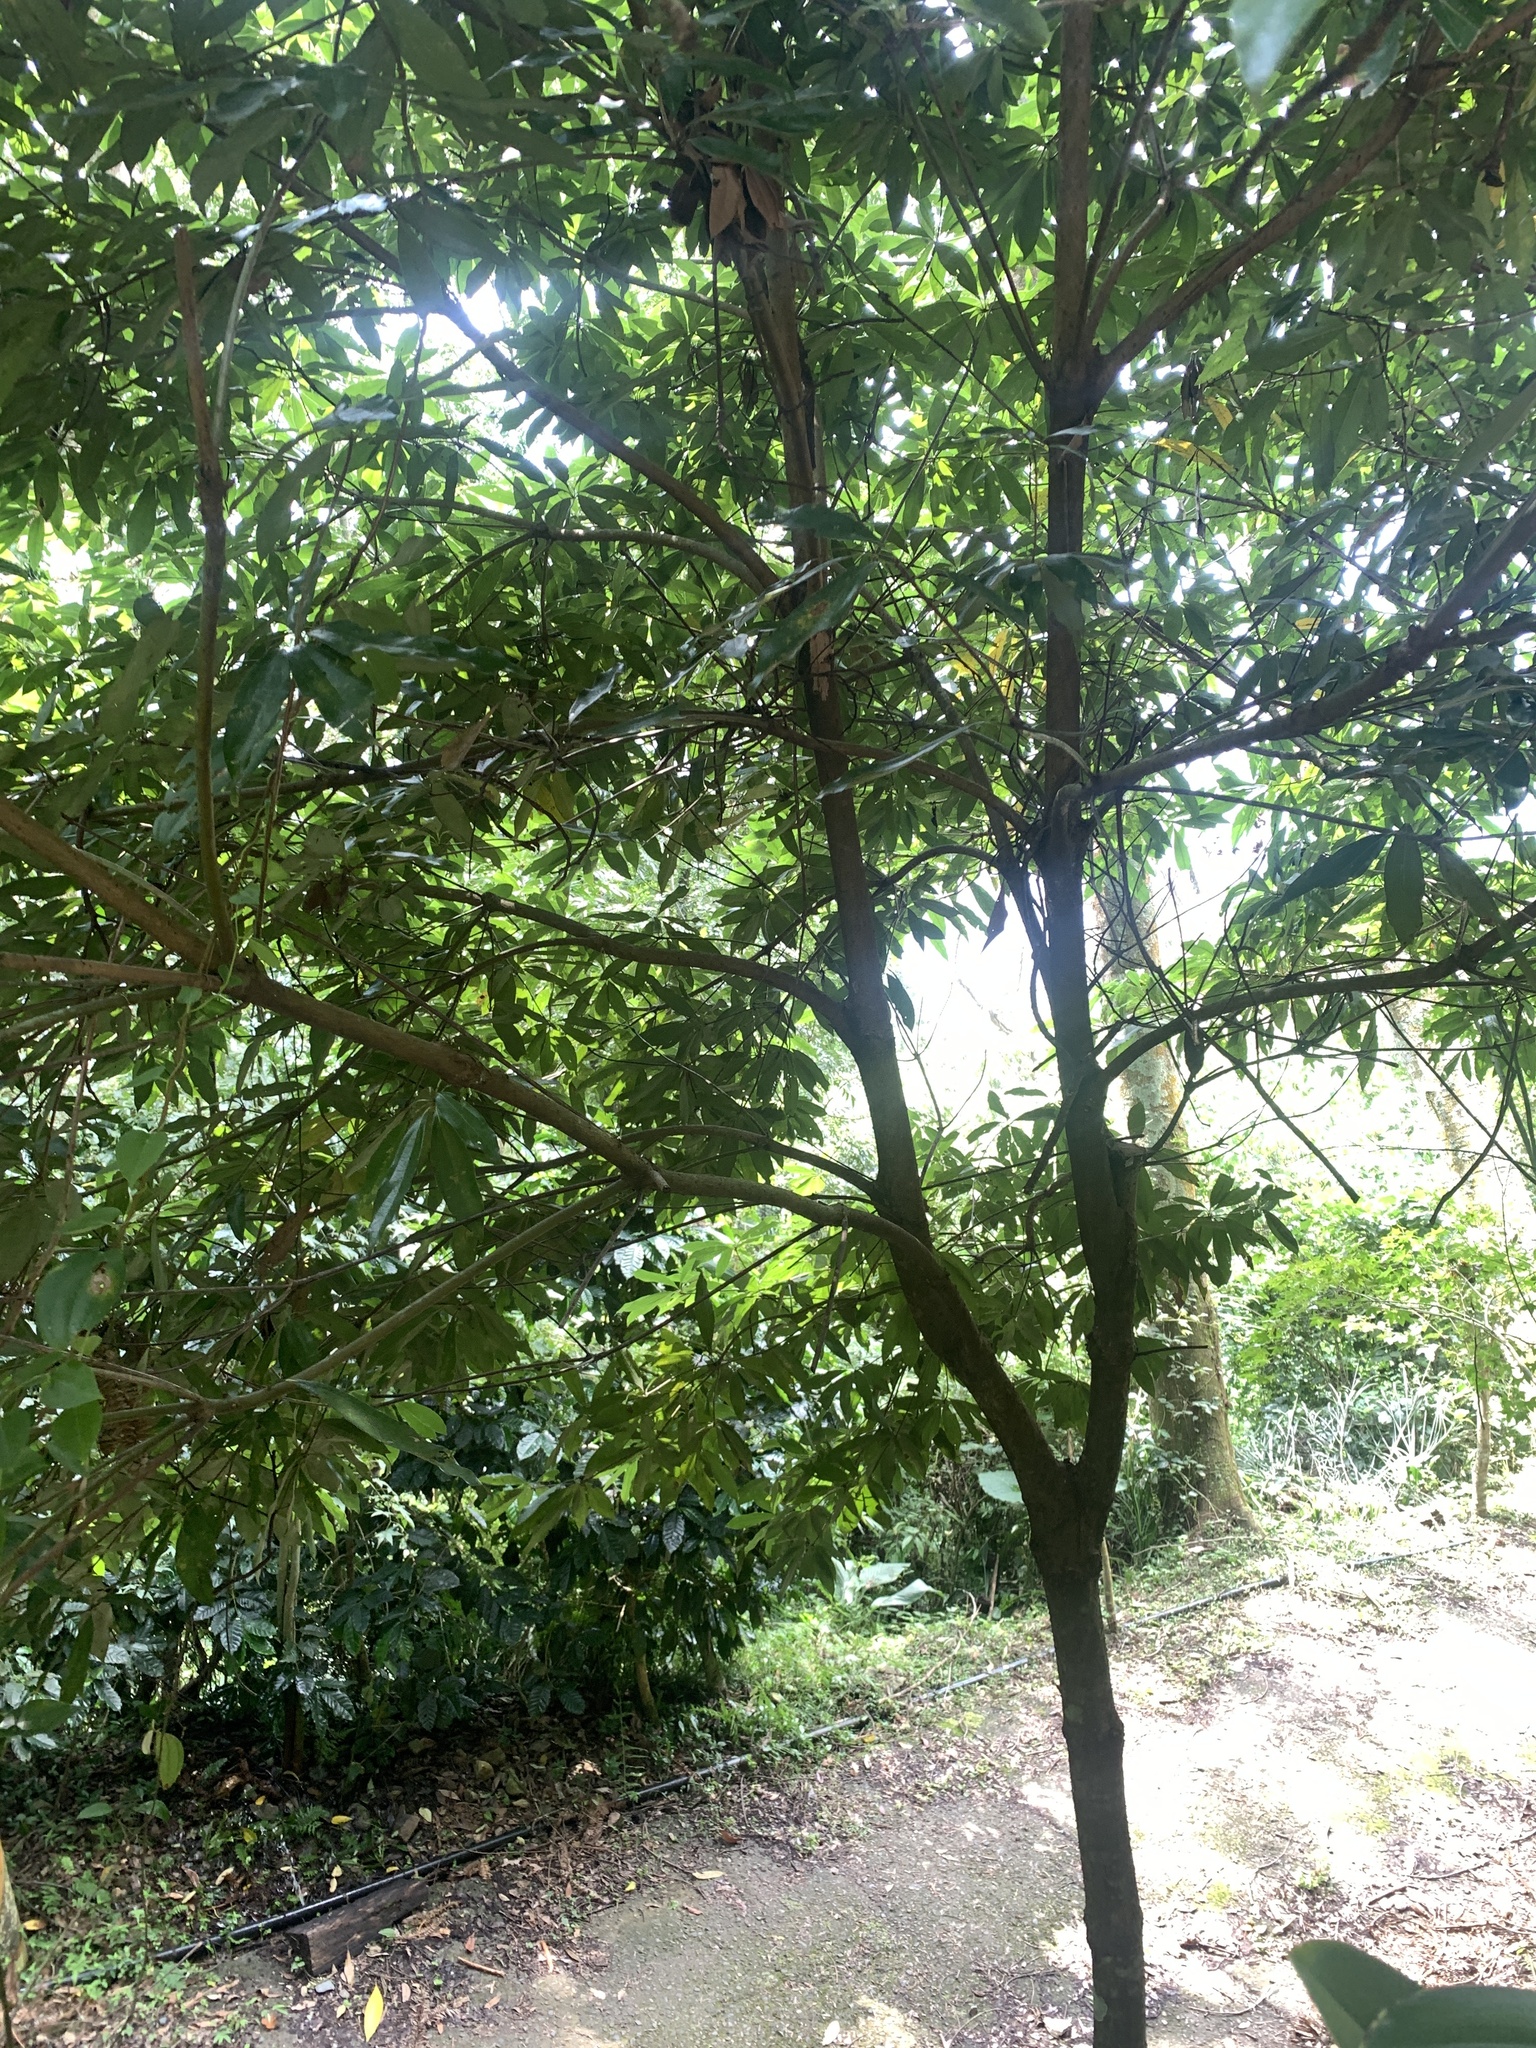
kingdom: Plantae
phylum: Tracheophyta
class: Magnoliopsida
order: Laurales
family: Lauraceae
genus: Neolitsea
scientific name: Neolitsea konishii
